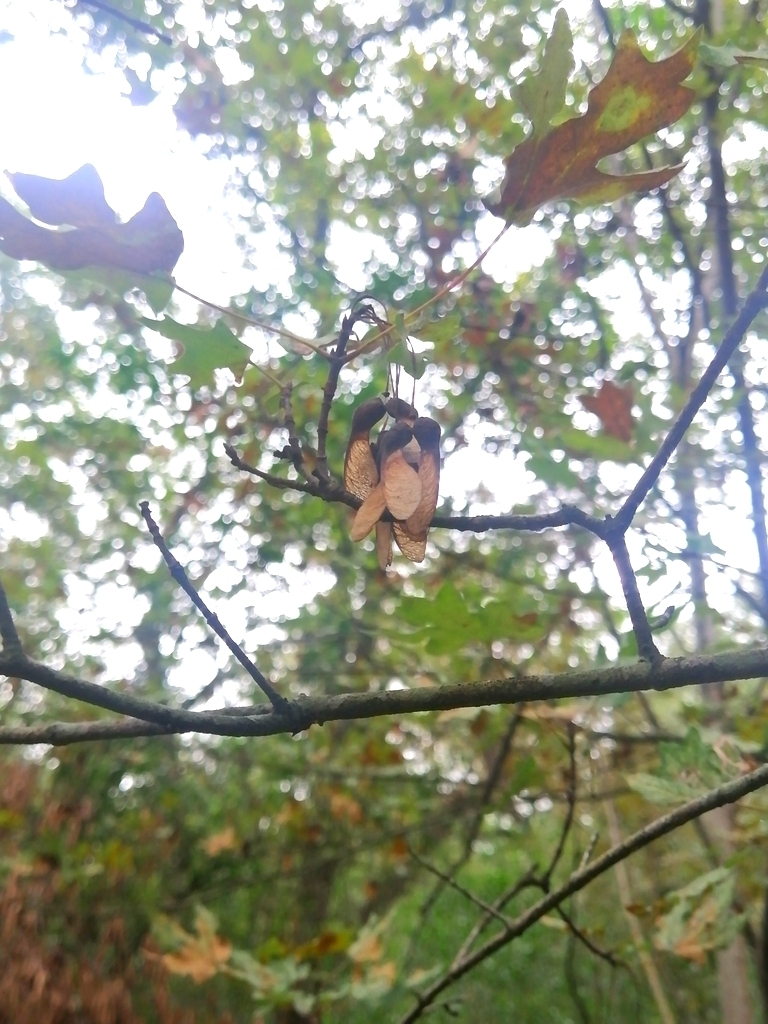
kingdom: Plantae
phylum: Tracheophyta
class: Magnoliopsida
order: Sapindales
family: Sapindaceae
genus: Acer
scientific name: Acer grandidentatum
